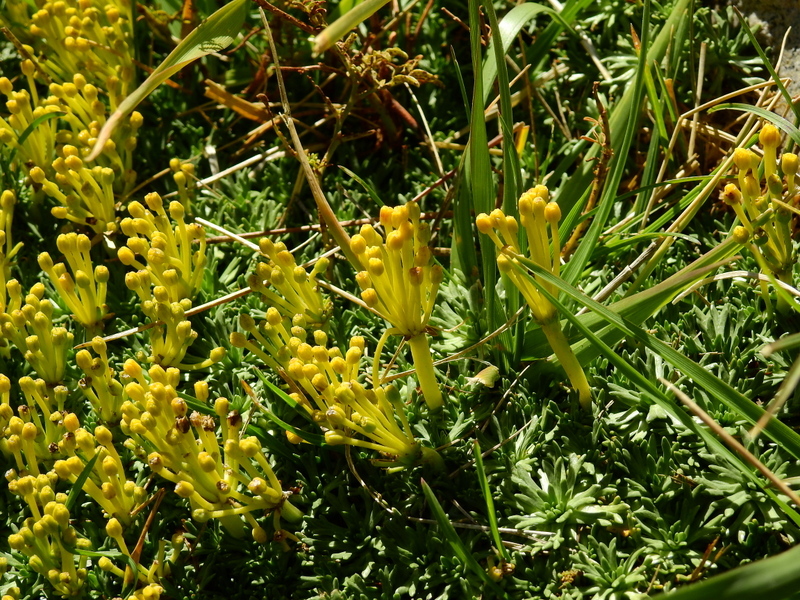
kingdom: Plantae
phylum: Tracheophyta
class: Magnoliopsida
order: Apiales
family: Apiaceae
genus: Azorella
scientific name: Azorella trifurcata
